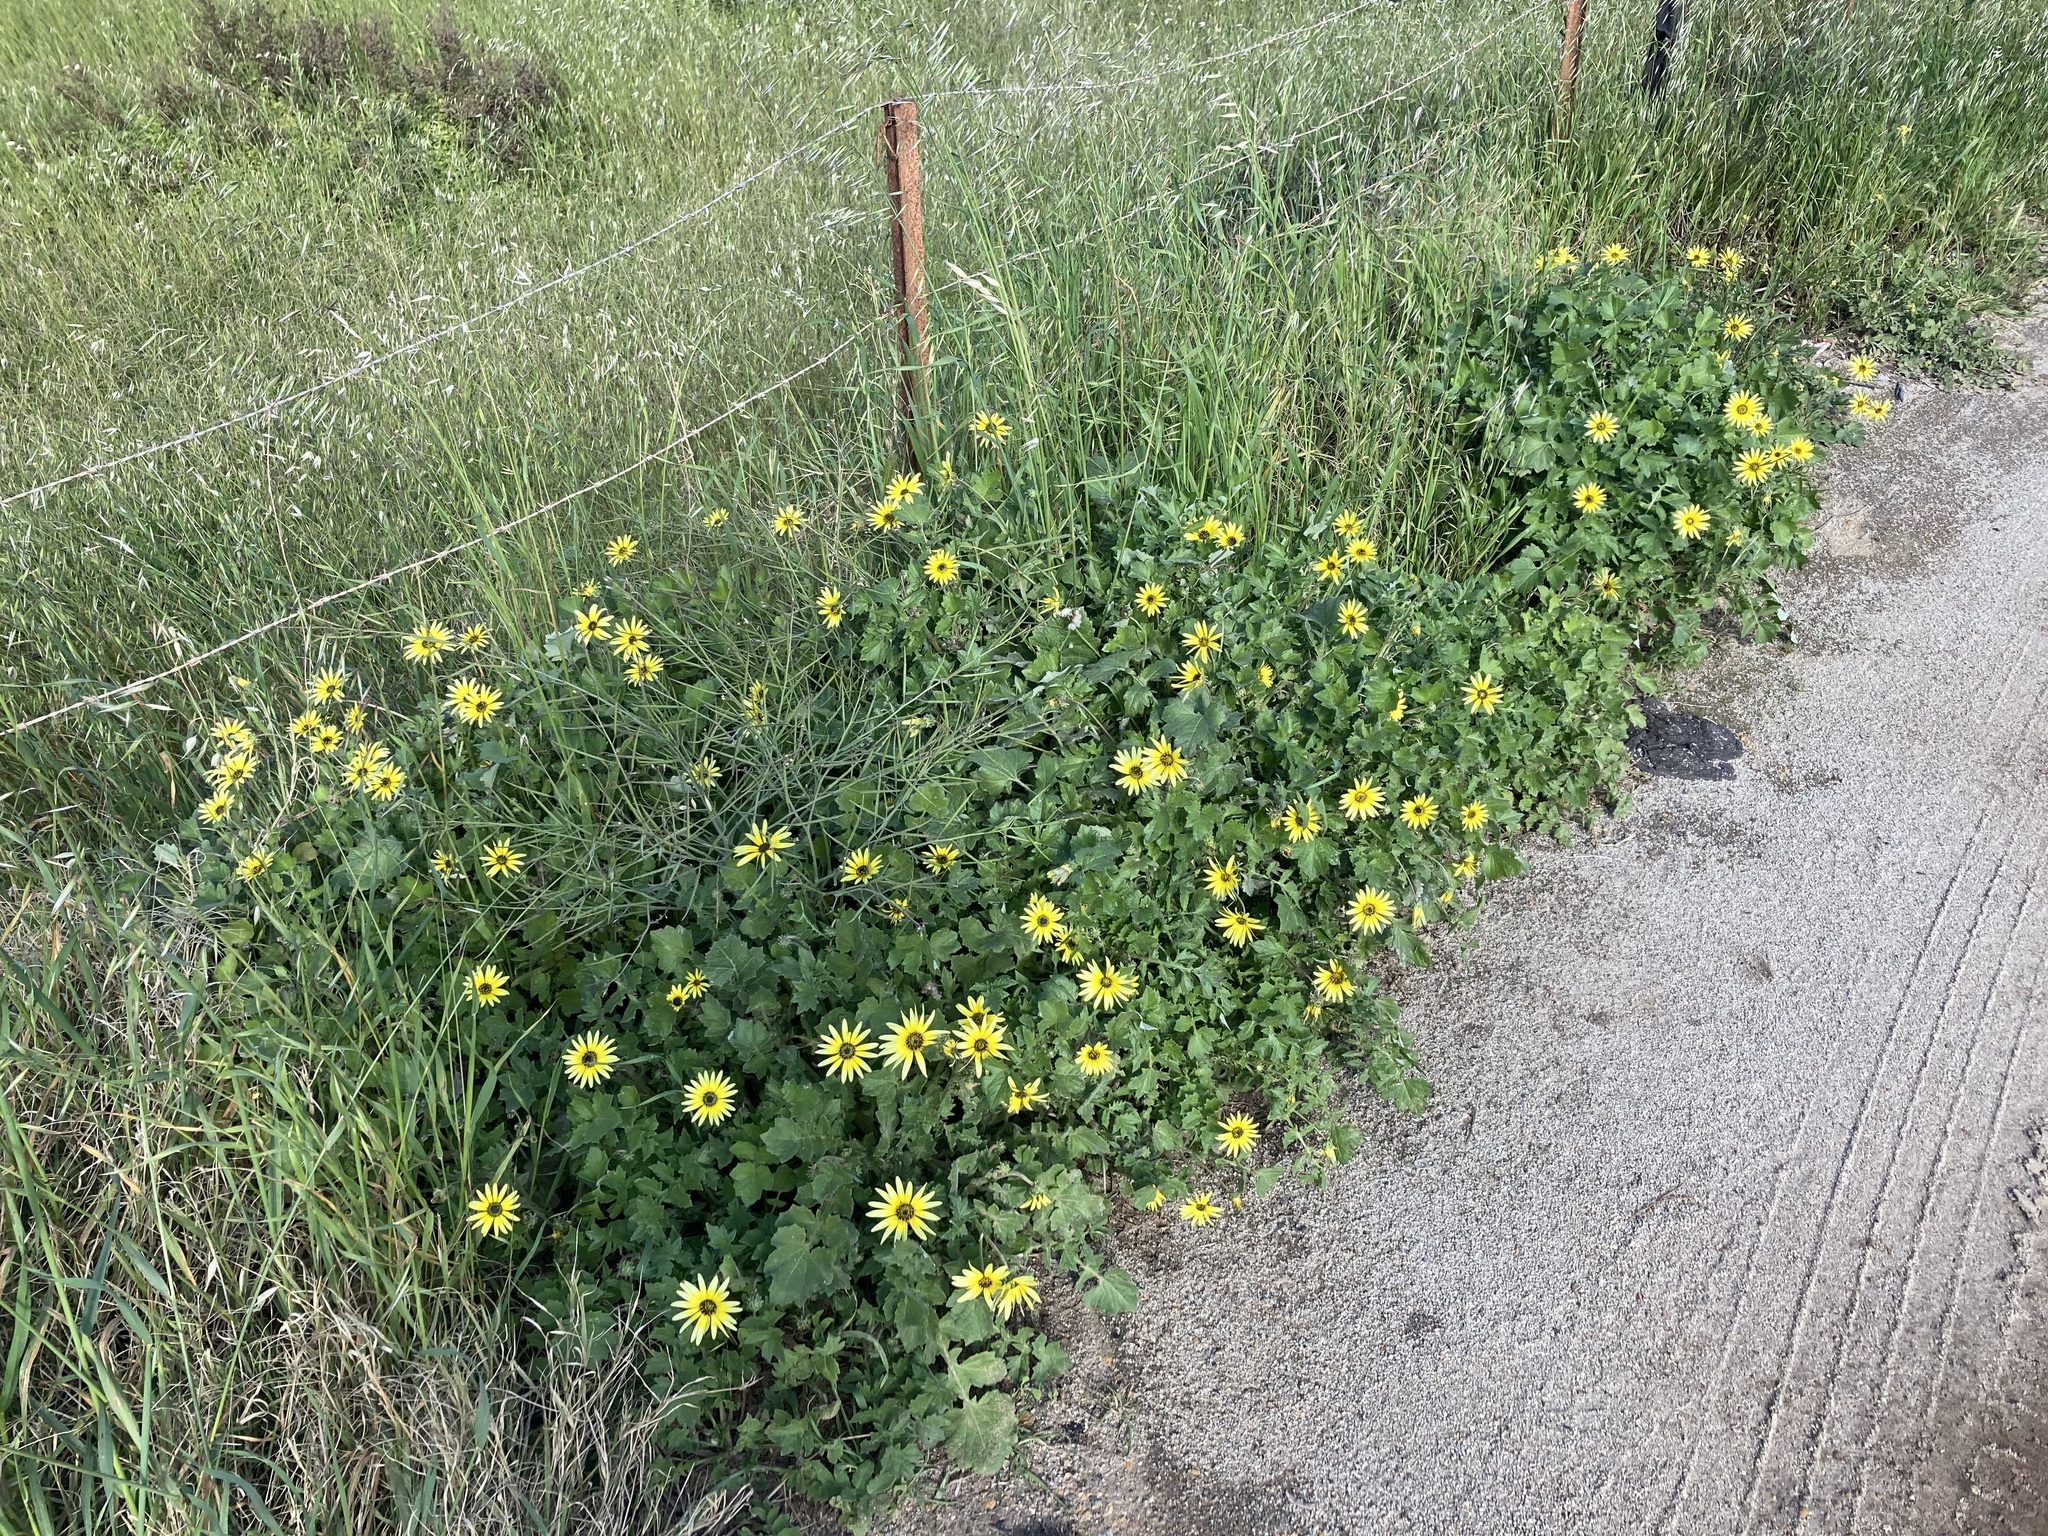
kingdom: Plantae
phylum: Tracheophyta
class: Magnoliopsida
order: Asterales
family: Asteraceae
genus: Arctotheca
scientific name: Arctotheca calendula
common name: Capeweed
